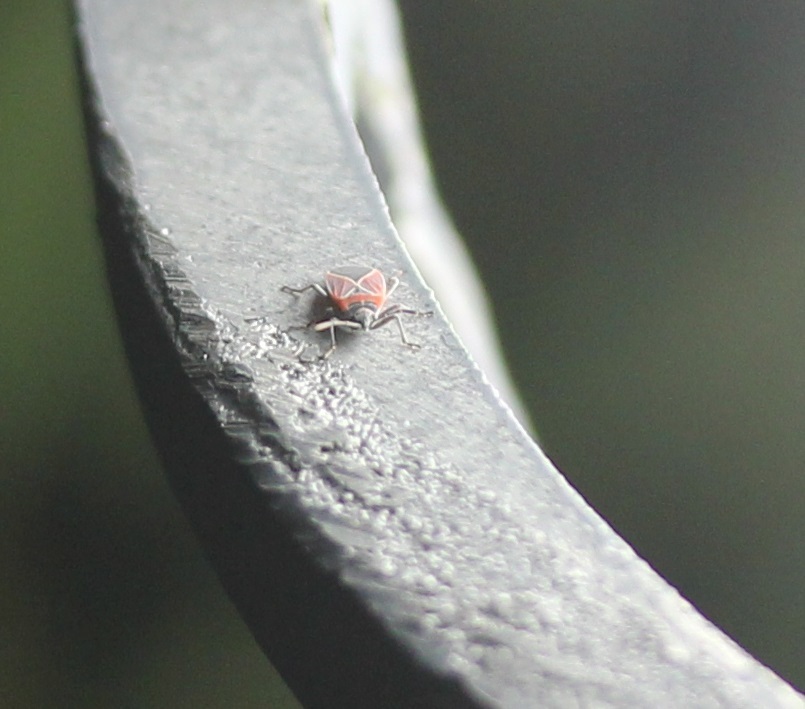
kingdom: Animalia
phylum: Arthropoda
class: Insecta
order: Hemiptera
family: Lygaeidae
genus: Neacoryphus
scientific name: Neacoryphus bicrucis
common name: Lygaeid bug
